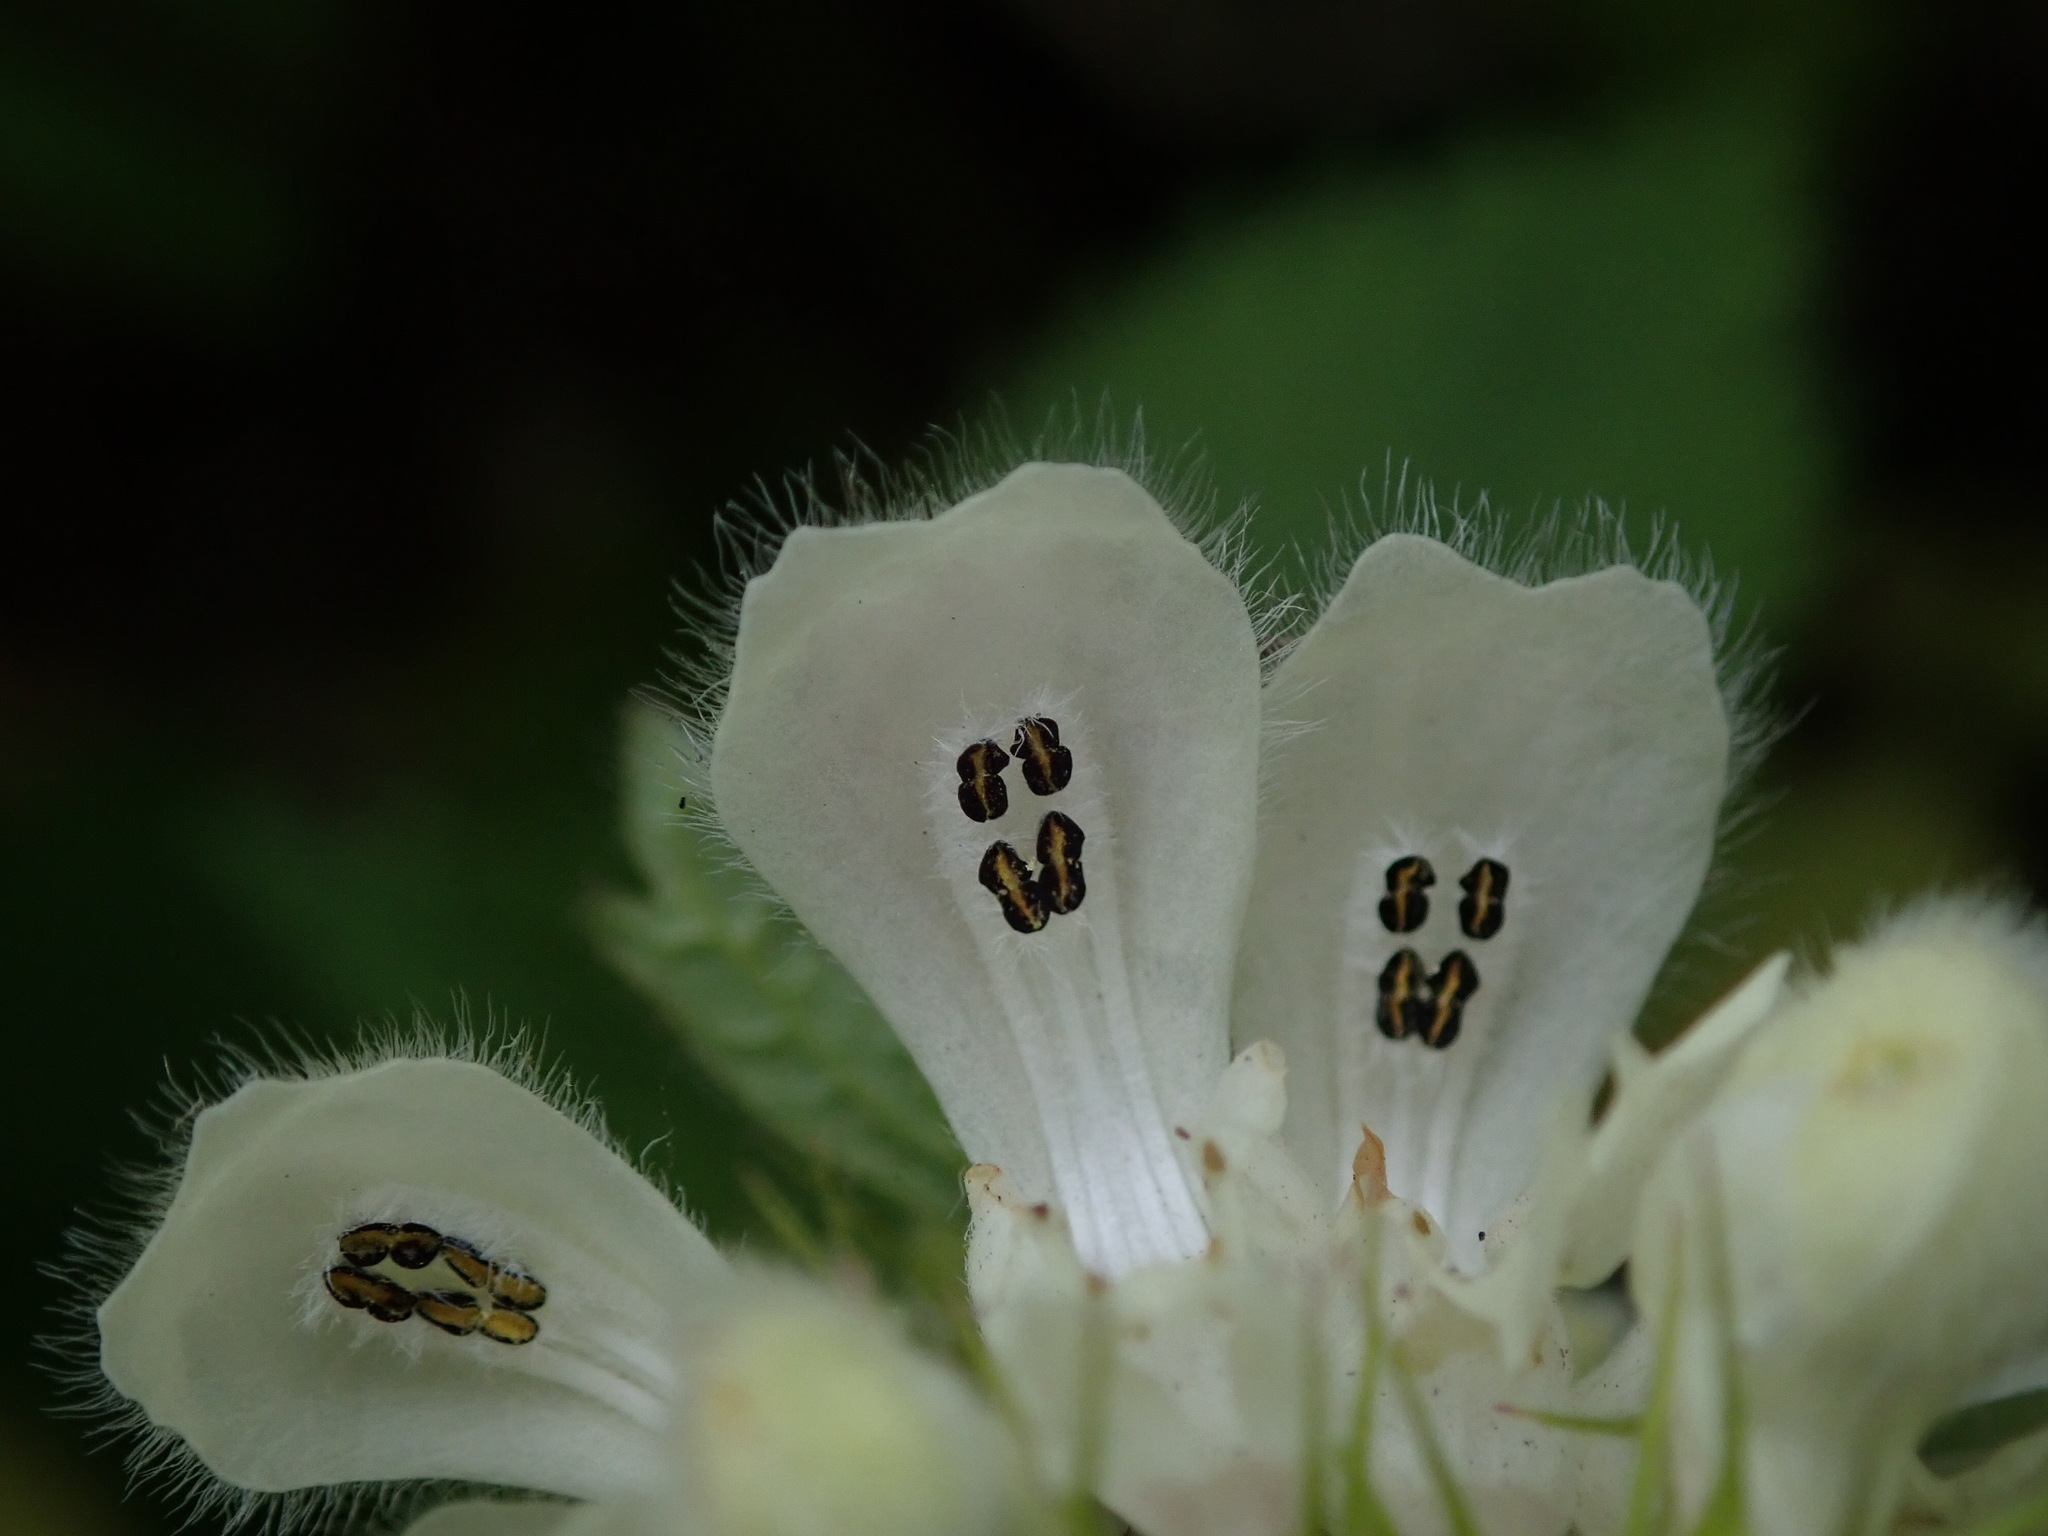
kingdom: Plantae
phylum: Tracheophyta
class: Magnoliopsida
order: Lamiales
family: Lamiaceae
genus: Lamium
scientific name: Lamium album
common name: White dead-nettle
